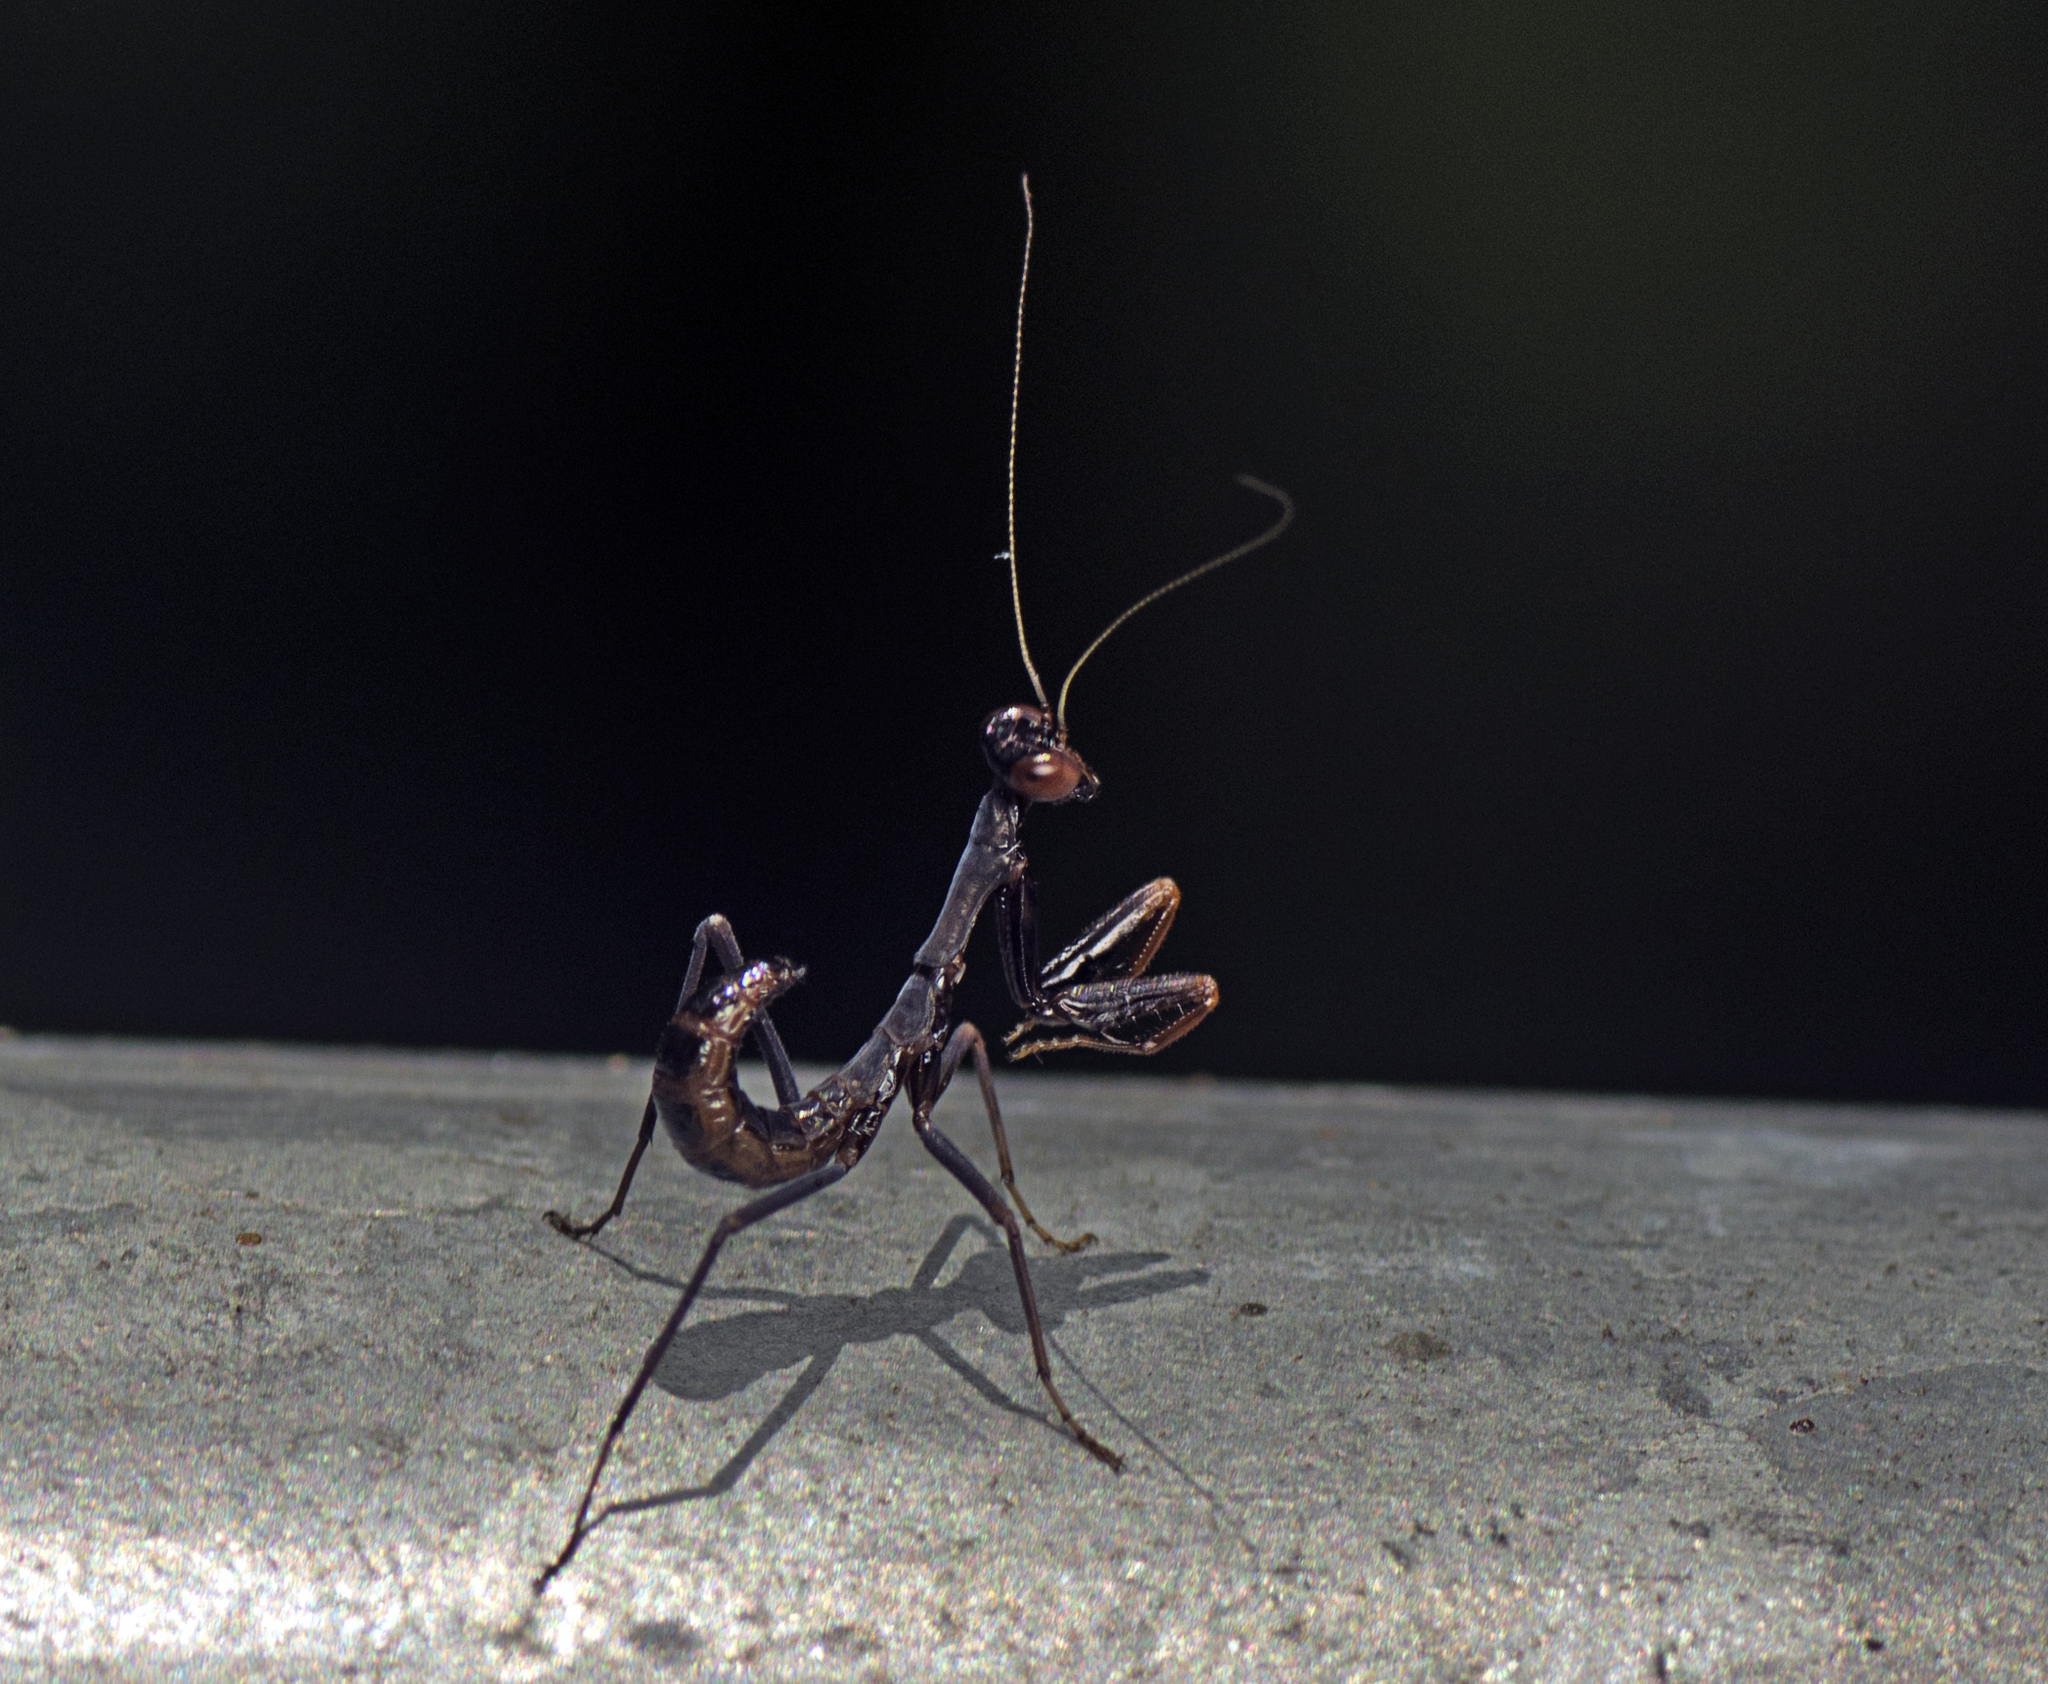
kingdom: Animalia
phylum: Arthropoda
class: Insecta
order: Mantodea
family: Mantidae
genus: Sphodropoda
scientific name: Sphodropoda tristis
